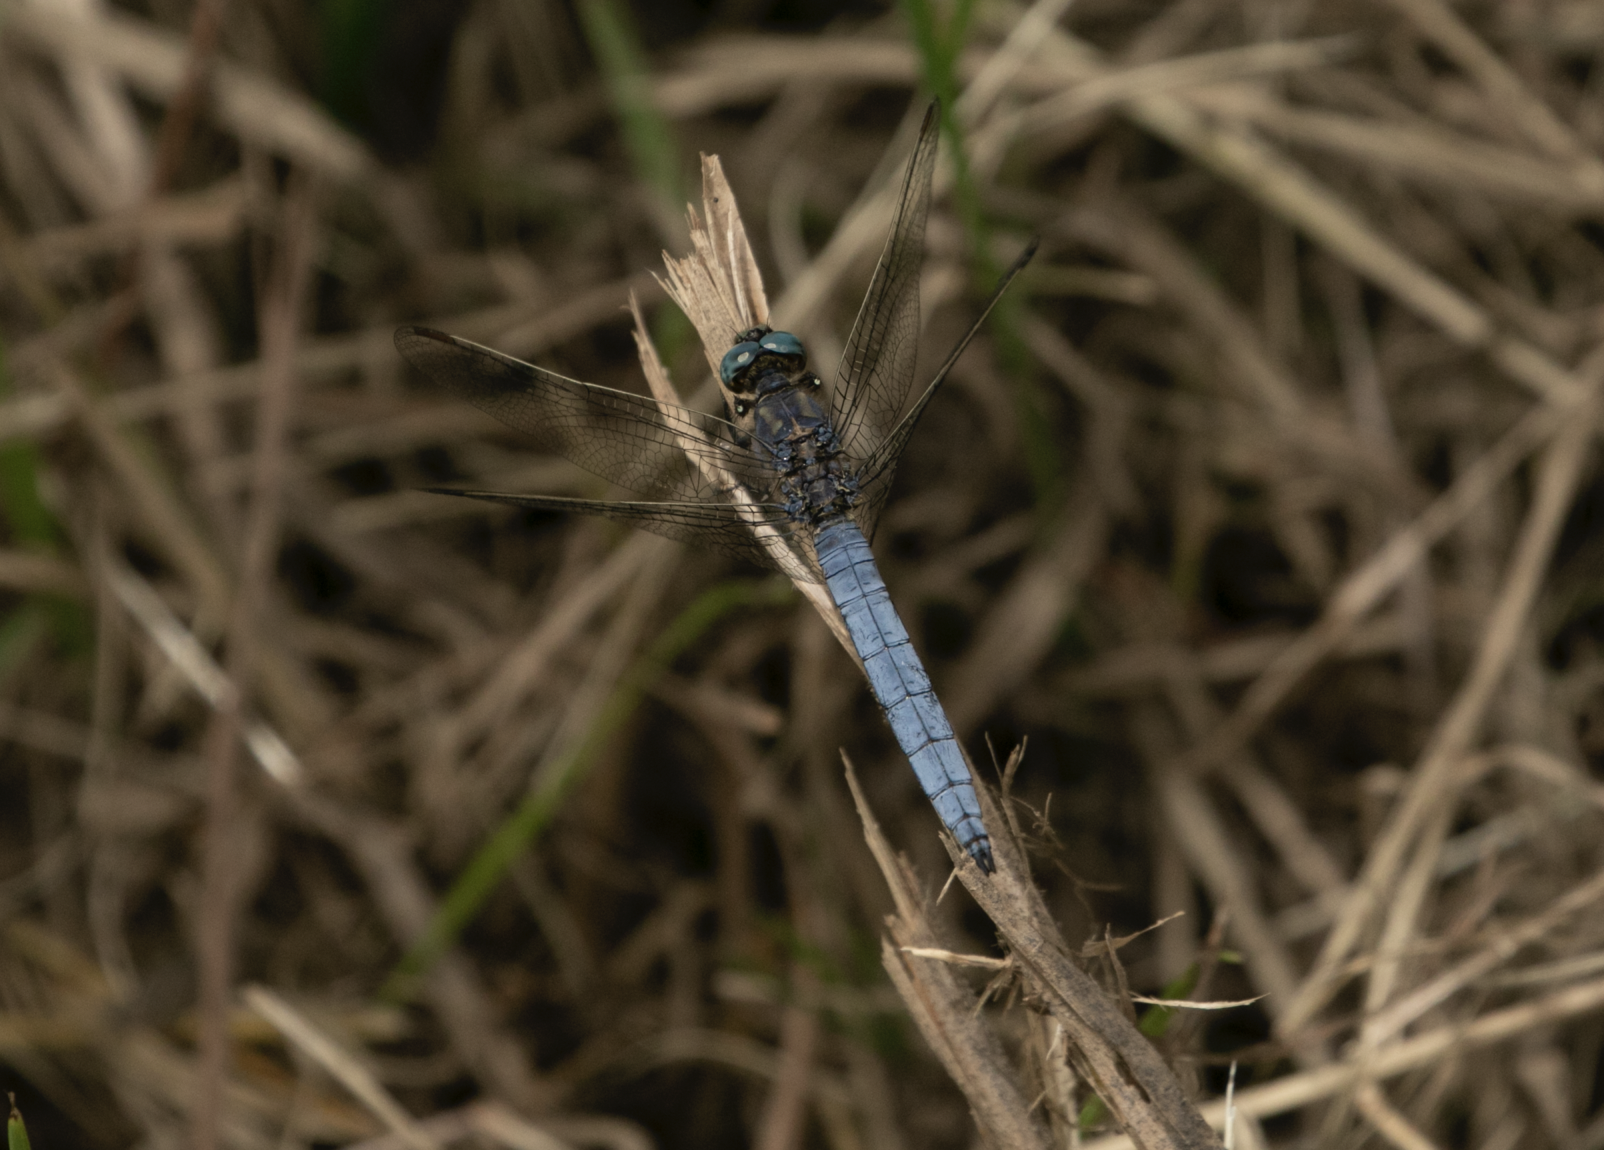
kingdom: Animalia
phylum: Arthropoda
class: Insecta
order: Odonata
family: Libellulidae
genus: Orthetrum
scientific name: Orthetrum coerulescens
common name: Keeled skimmer
